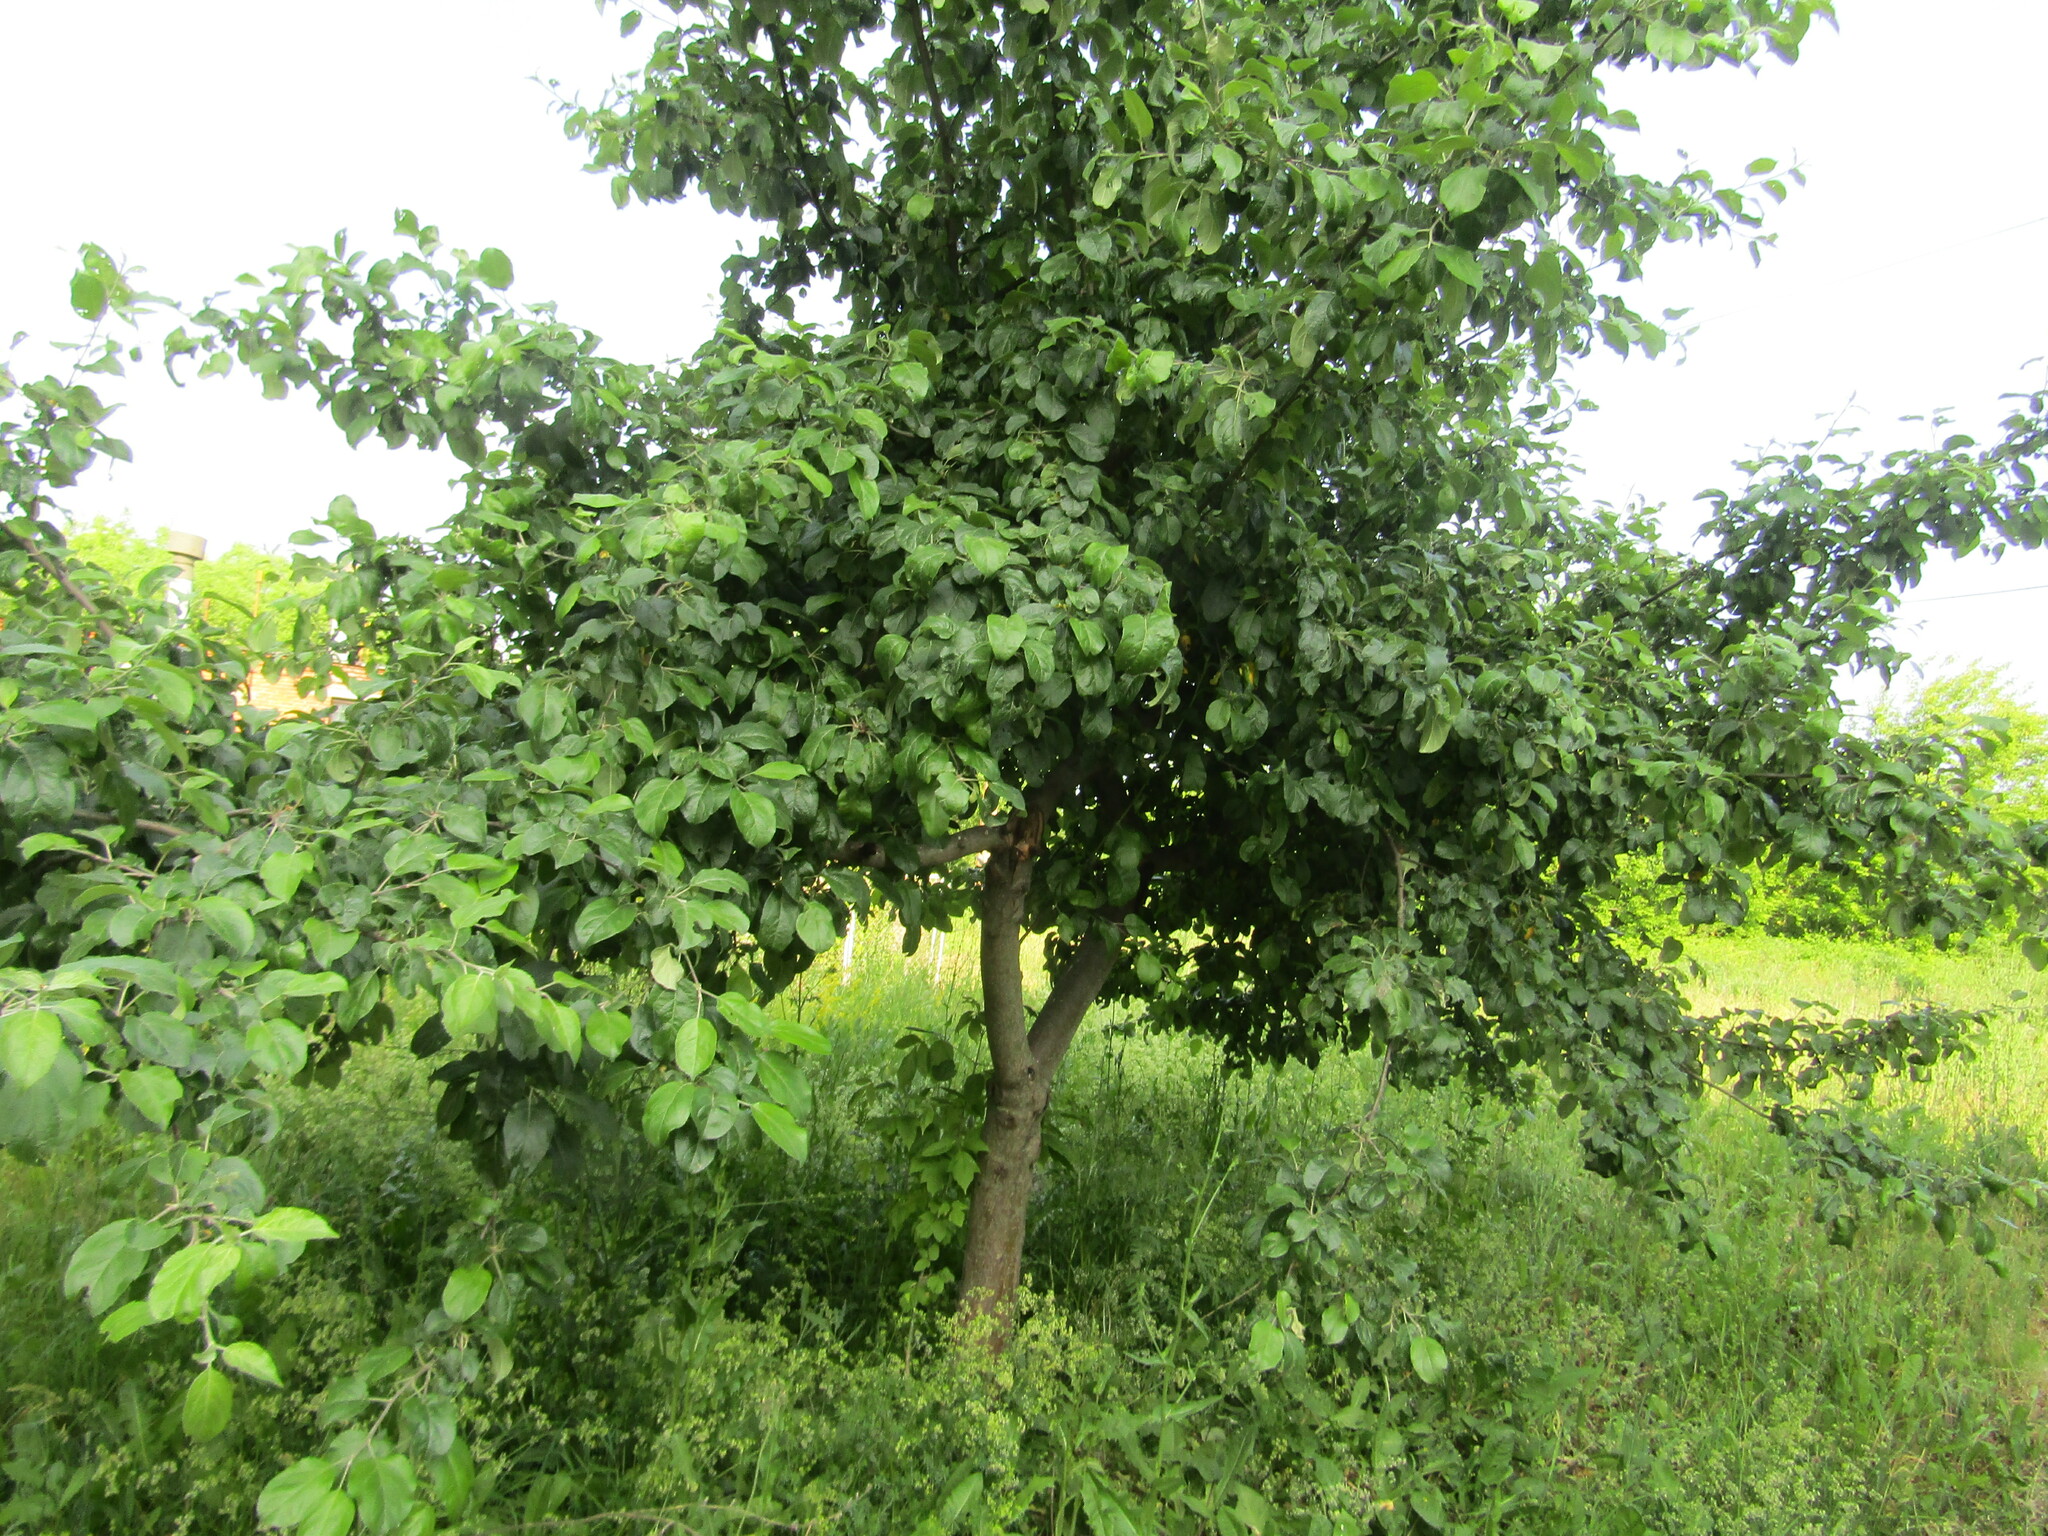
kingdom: Plantae
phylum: Tracheophyta
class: Magnoliopsida
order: Rosales
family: Rosaceae
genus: Malus
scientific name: Malus domestica
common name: Apple
